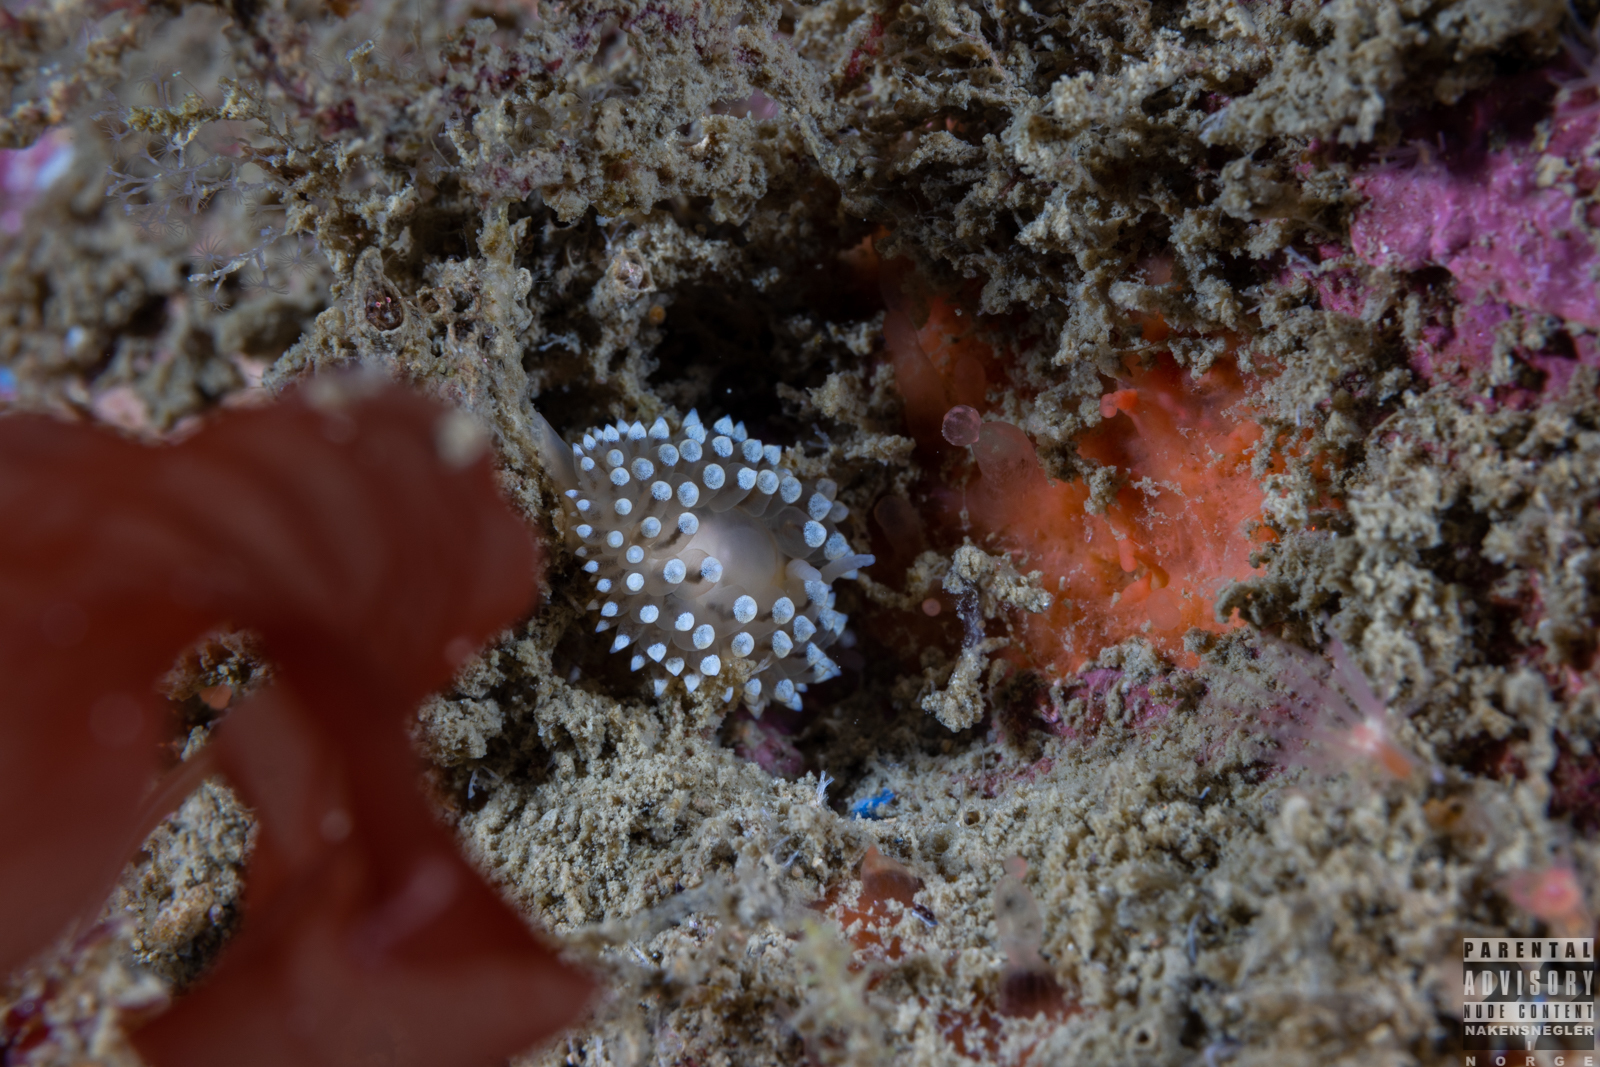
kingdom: Animalia
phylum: Mollusca
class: Gastropoda
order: Nudibranchia
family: Eubranchidae
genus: Eubranchus
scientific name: Eubranchus tricolor
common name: Painted balloon aeolis
